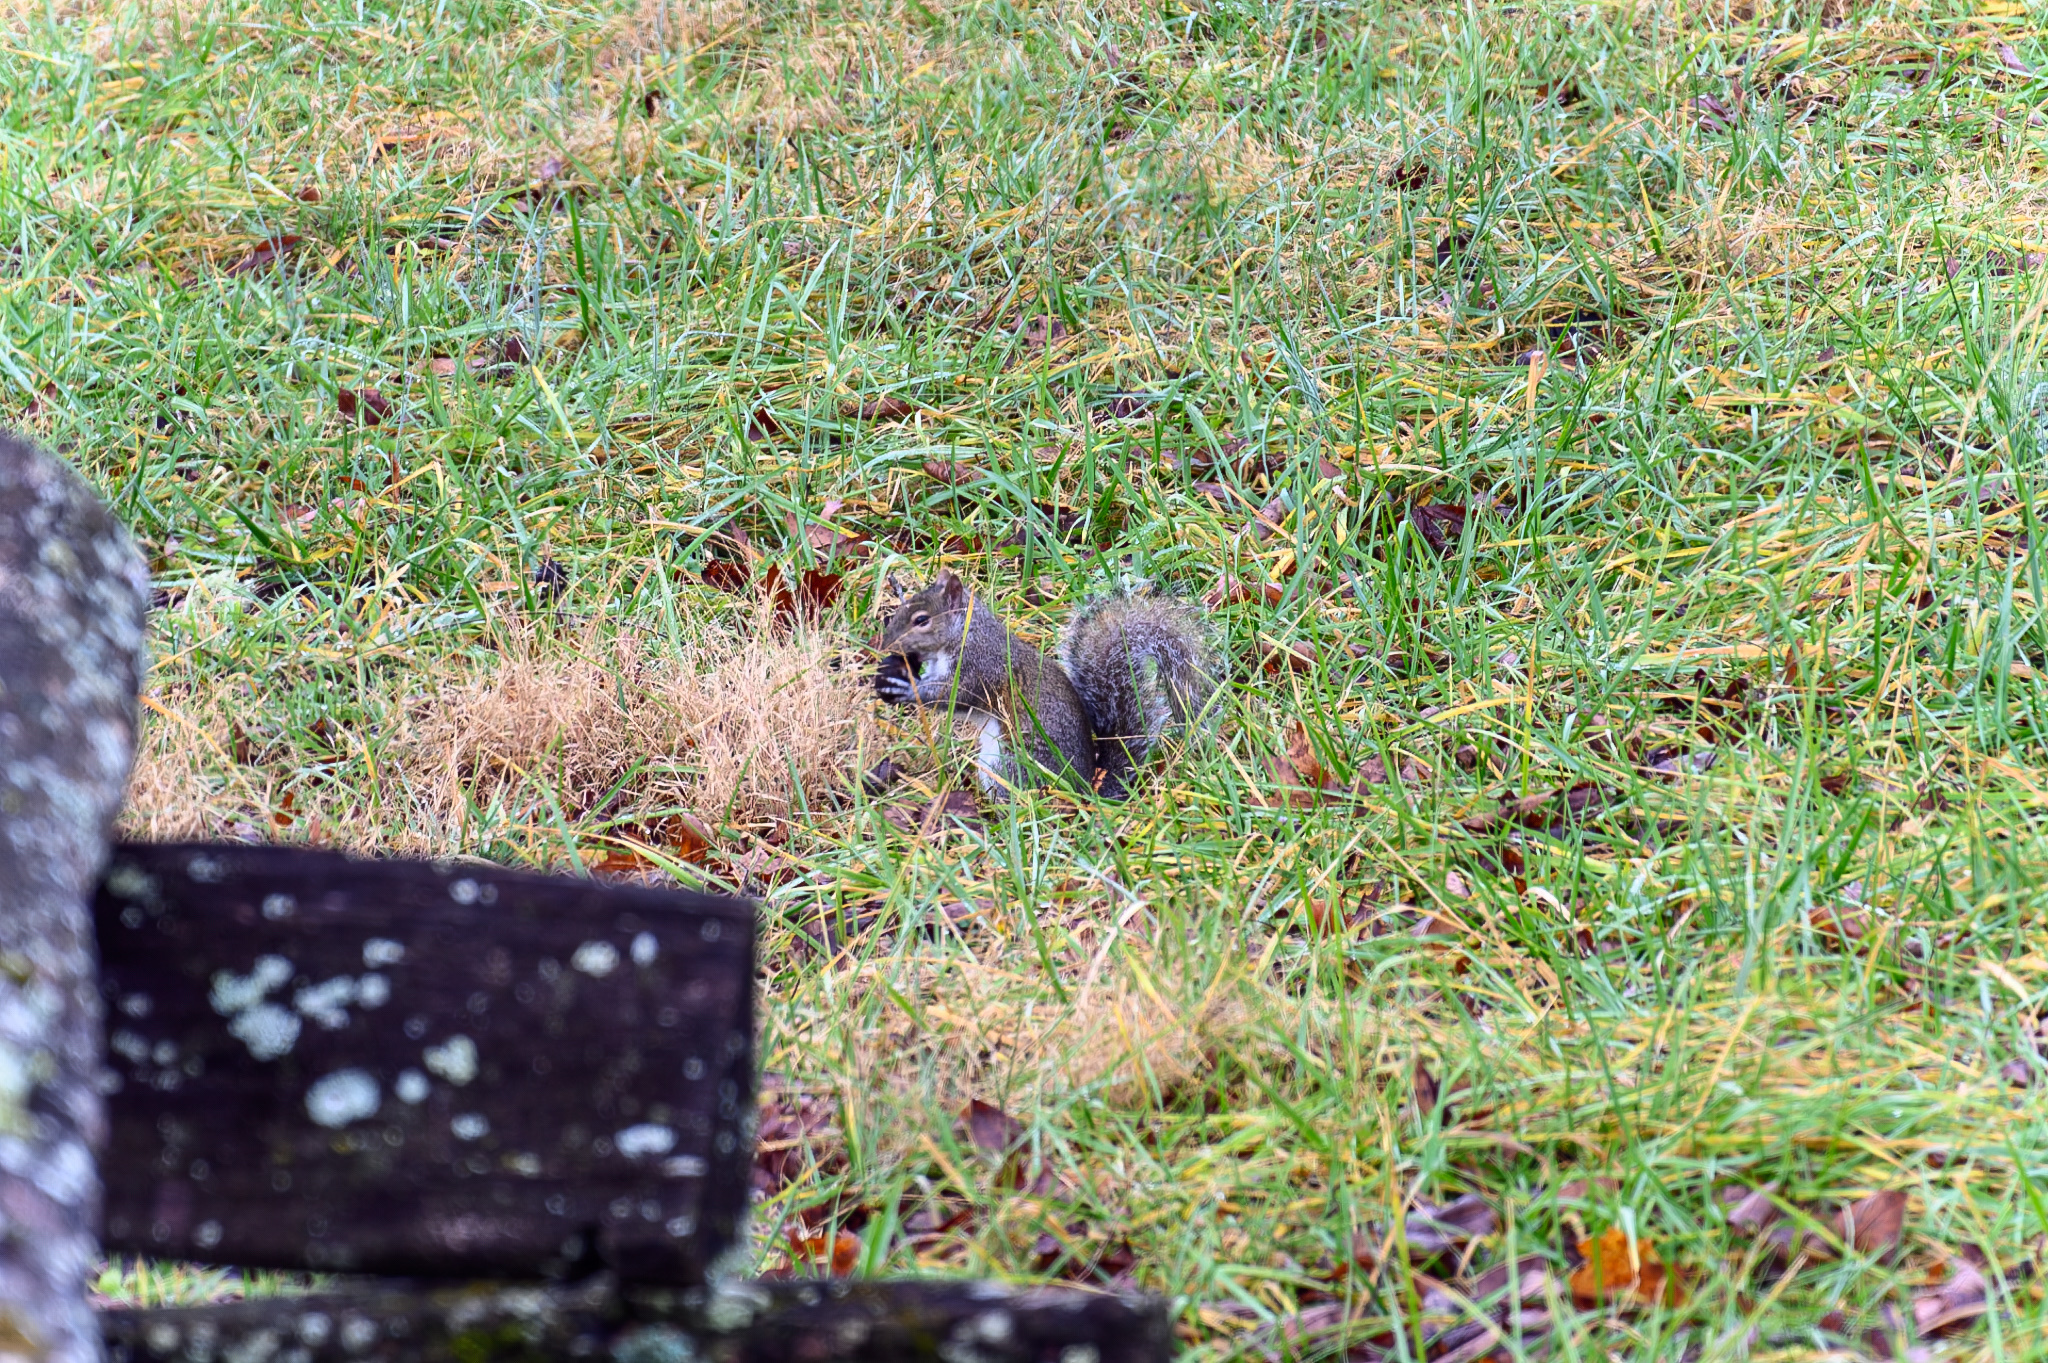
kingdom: Animalia
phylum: Chordata
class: Mammalia
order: Rodentia
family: Sciuridae
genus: Sciurus
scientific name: Sciurus carolinensis
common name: Eastern gray squirrel
